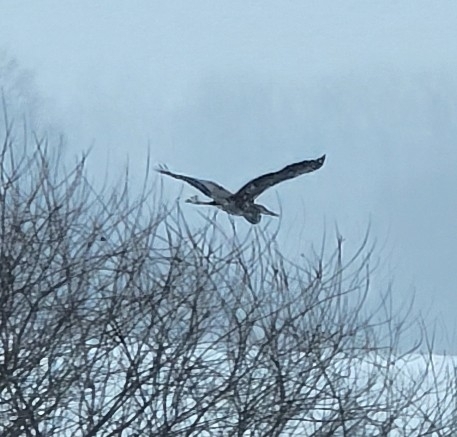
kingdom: Animalia
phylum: Chordata
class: Aves
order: Pelecaniformes
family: Ardeidae
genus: Ardea
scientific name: Ardea herodias
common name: Great blue heron
